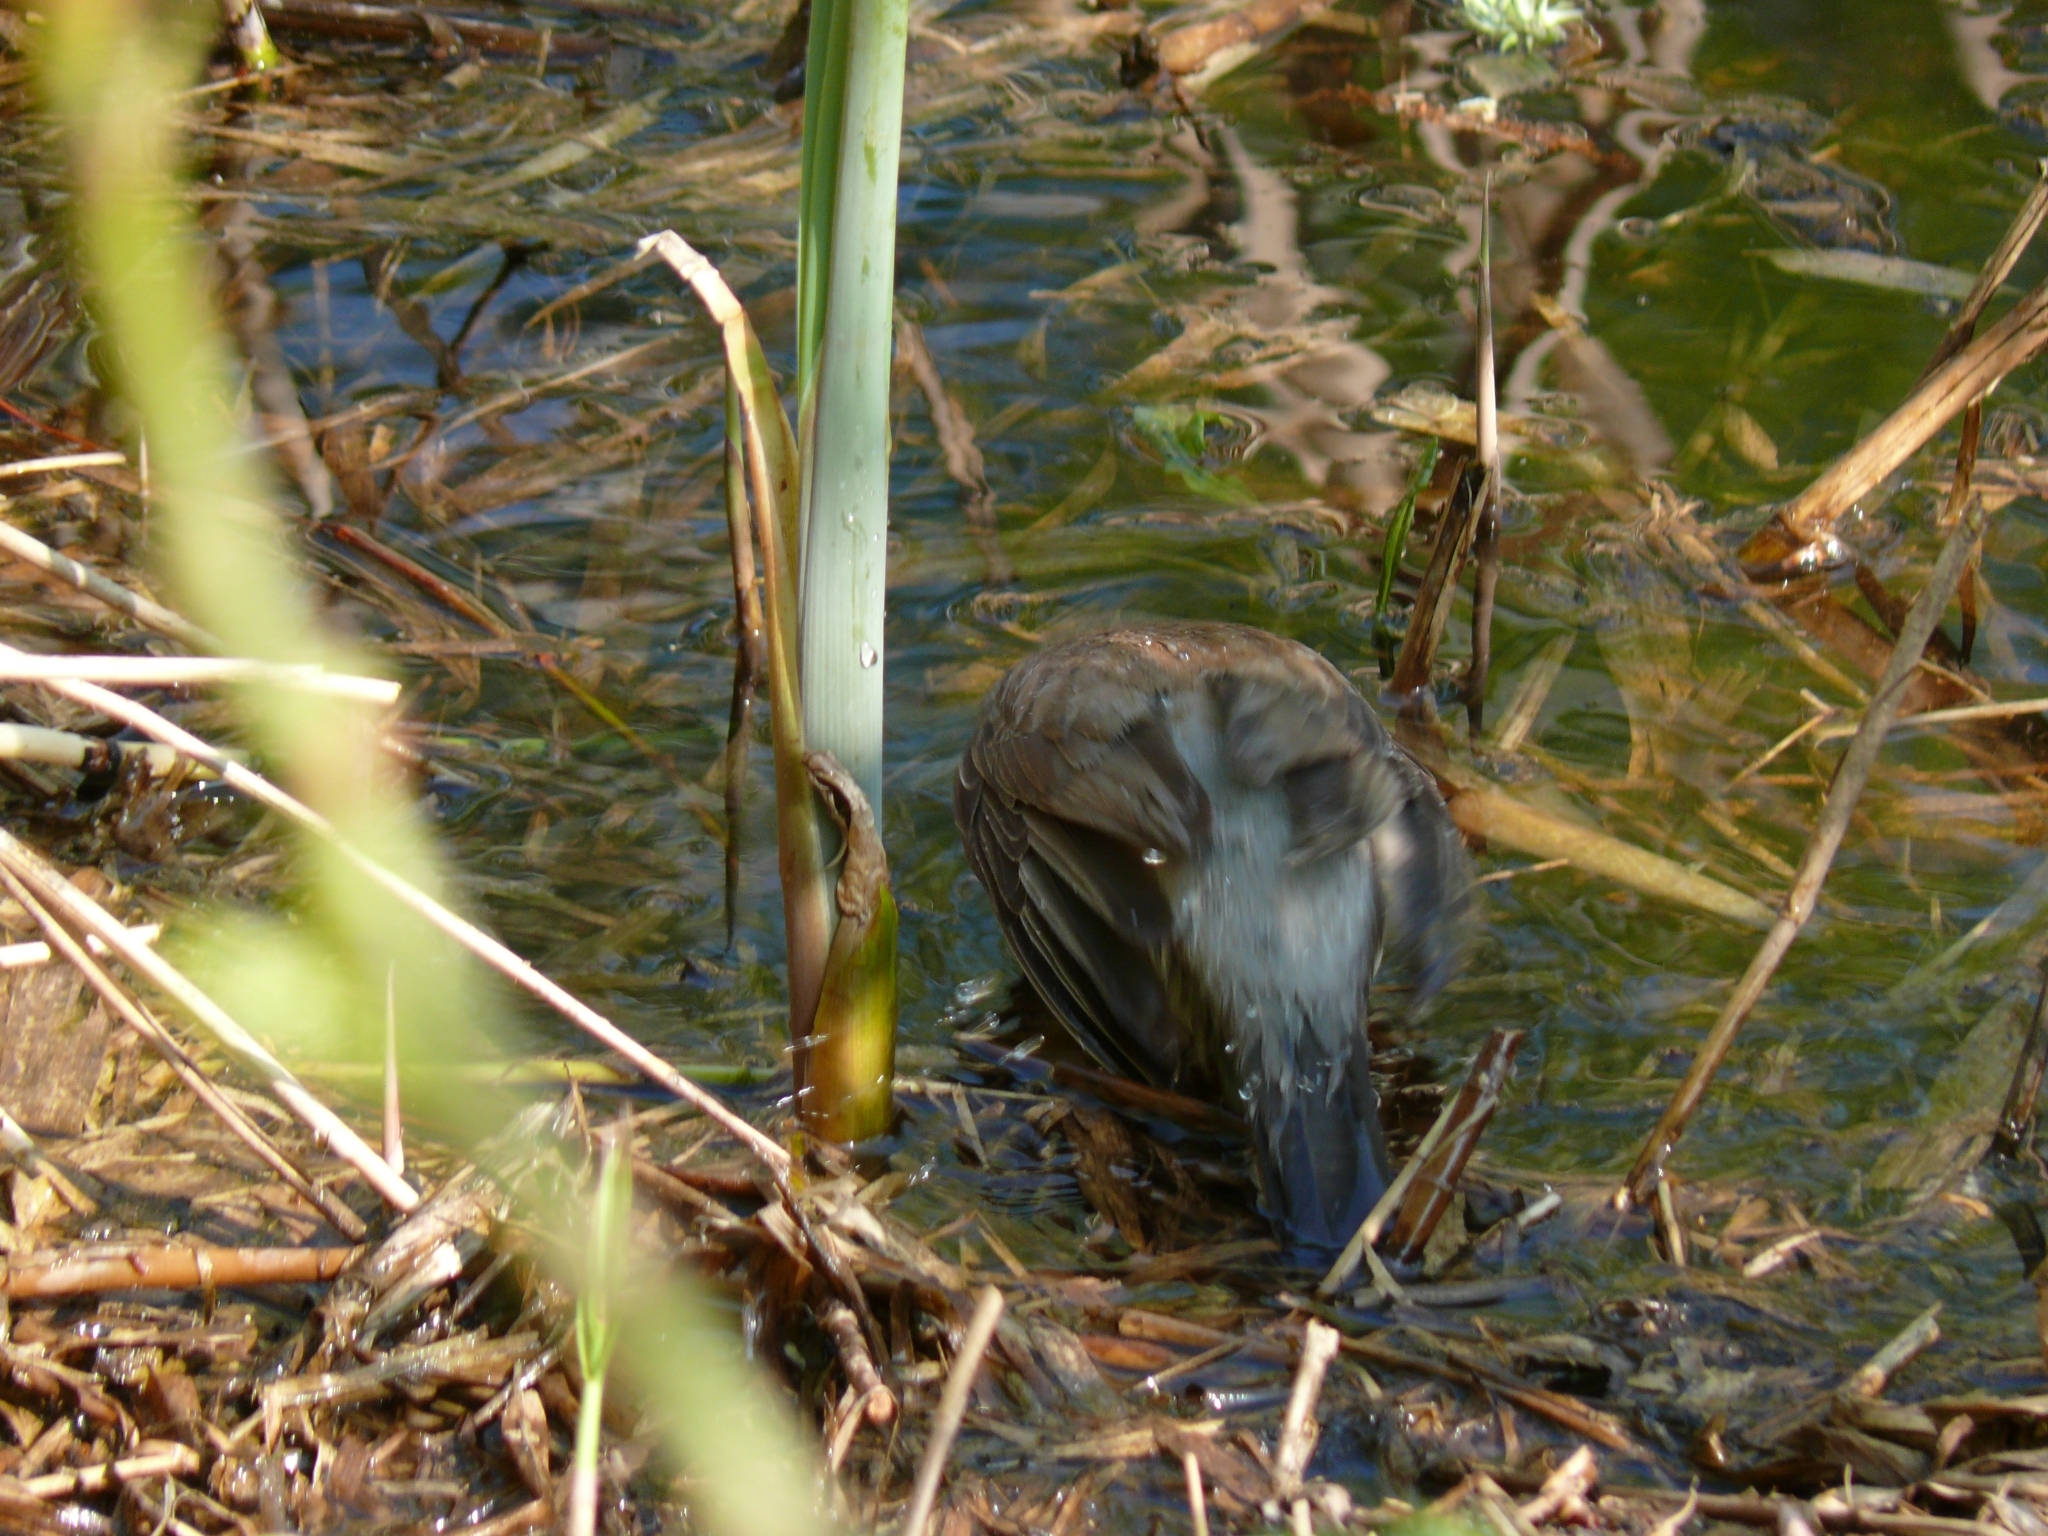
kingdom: Animalia
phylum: Chordata
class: Aves
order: Passeriformes
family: Turdidae
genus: Turdus
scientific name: Turdus pilaris
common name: Fieldfare
